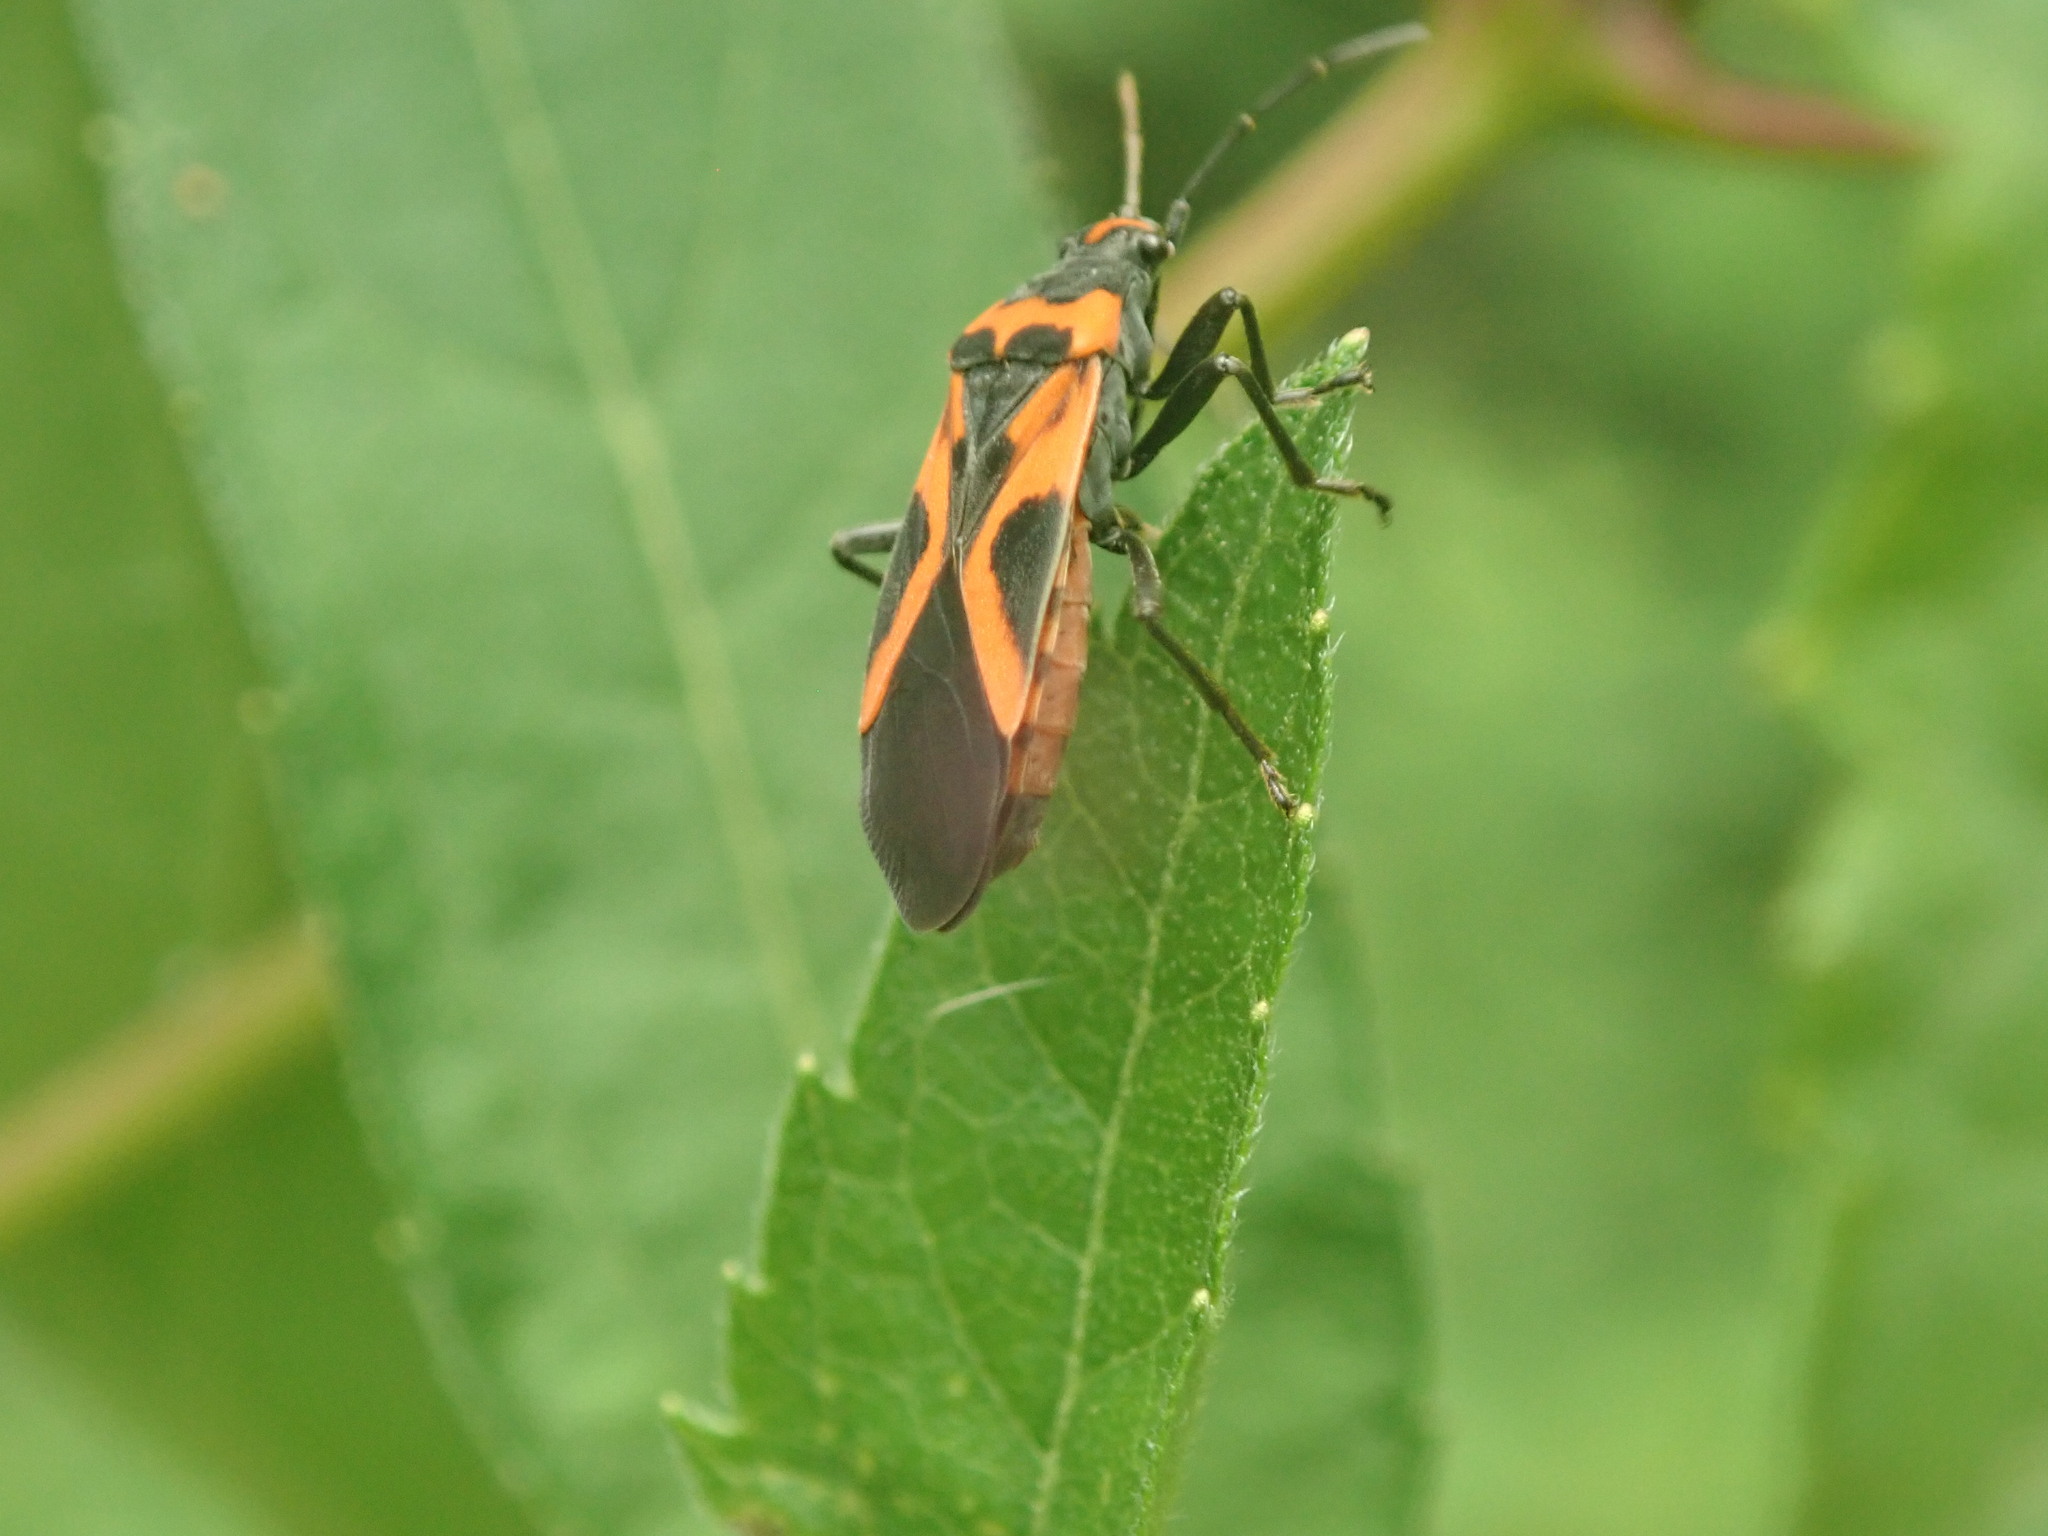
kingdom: Animalia
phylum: Arthropoda
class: Insecta
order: Hemiptera
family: Lygaeidae
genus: Lygaeus
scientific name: Lygaeus turcicus
